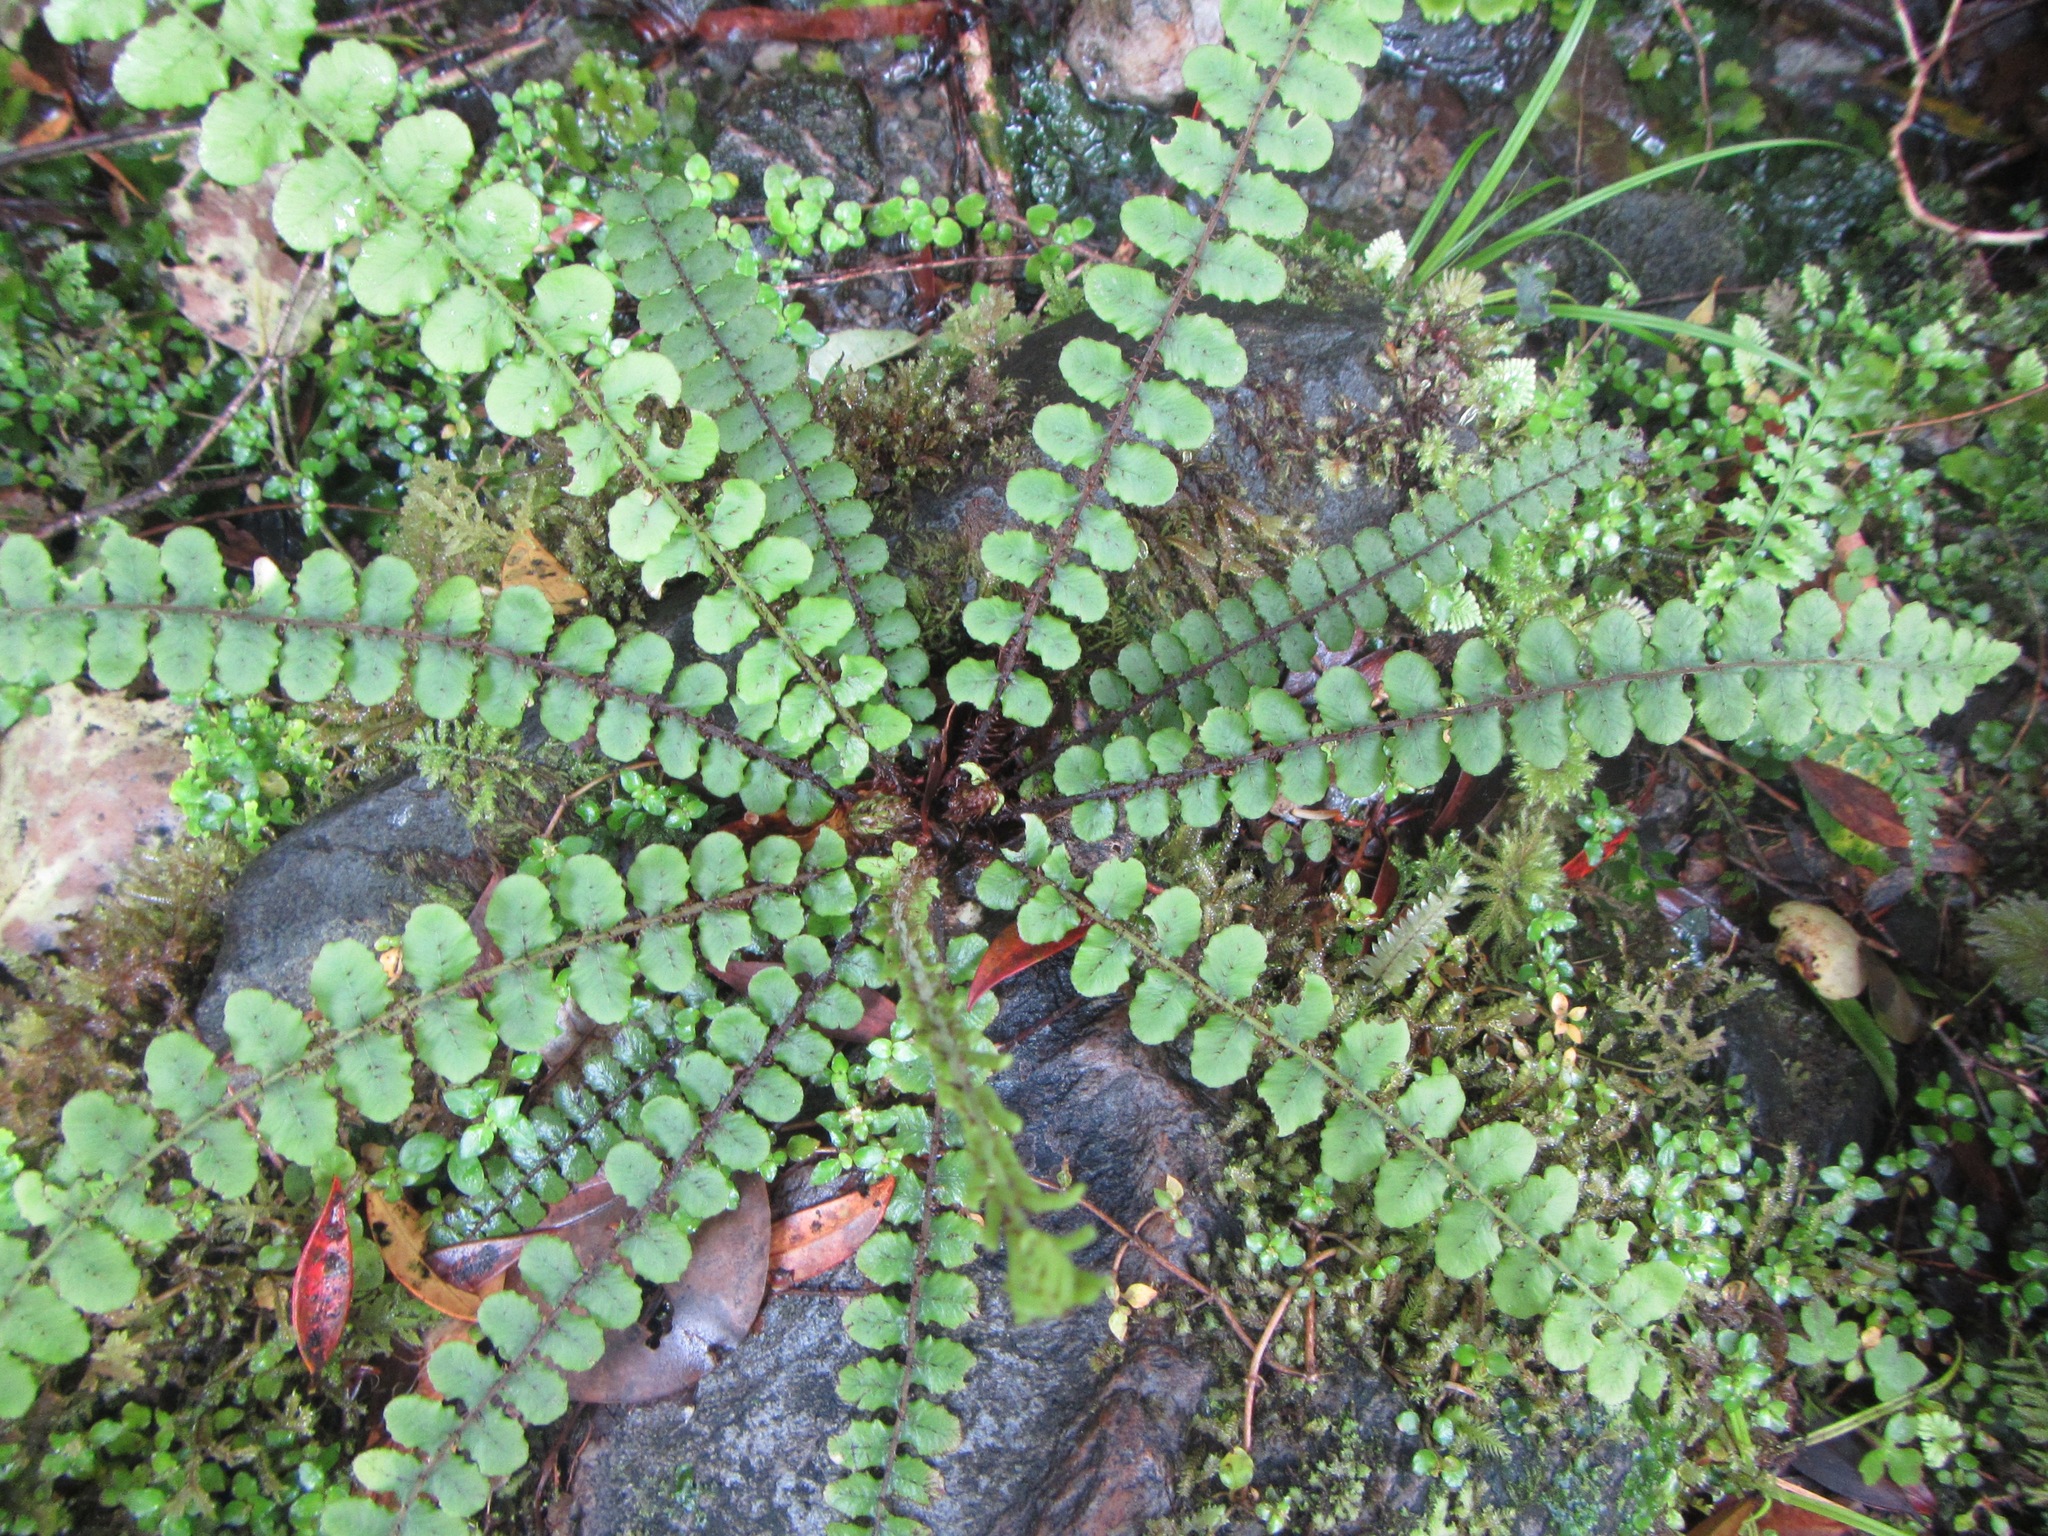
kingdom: Plantae
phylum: Tracheophyta
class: Polypodiopsida
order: Polypodiales
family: Blechnaceae
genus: Cranfillia
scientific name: Cranfillia fluviatilis
